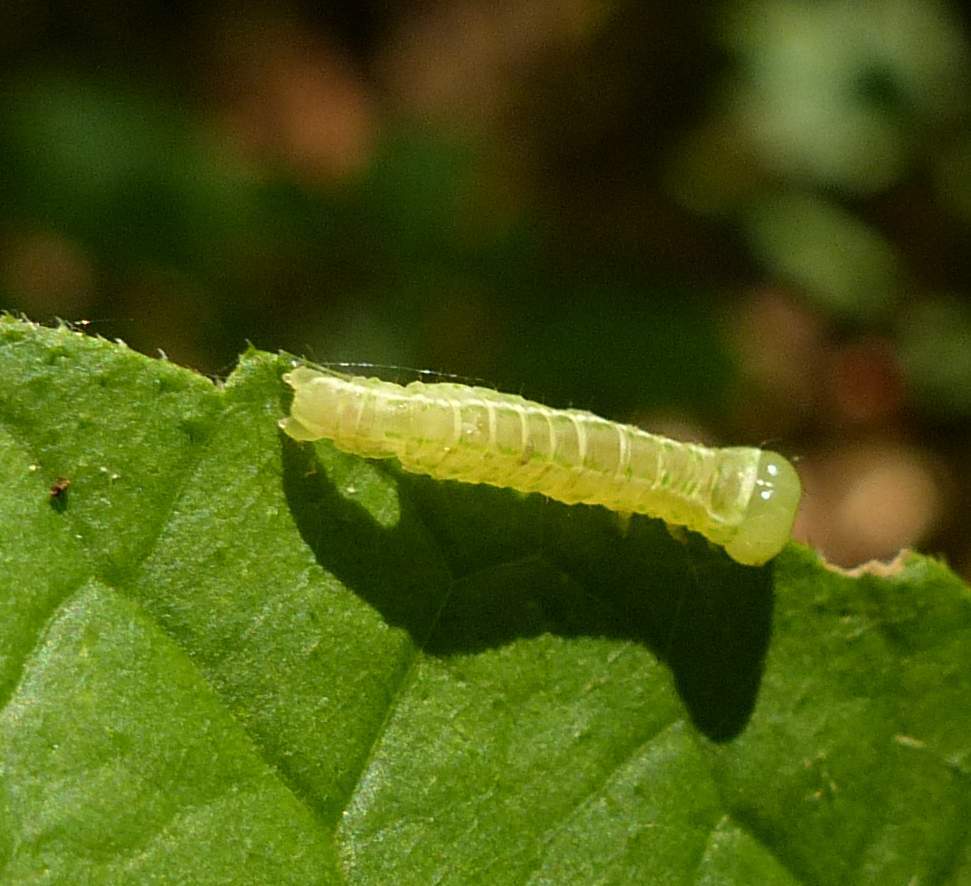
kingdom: Animalia
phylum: Arthropoda
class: Insecta
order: Lepidoptera
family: Nolidae
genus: Baileya
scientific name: Baileya dormitans
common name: Sleeping baileya moth
